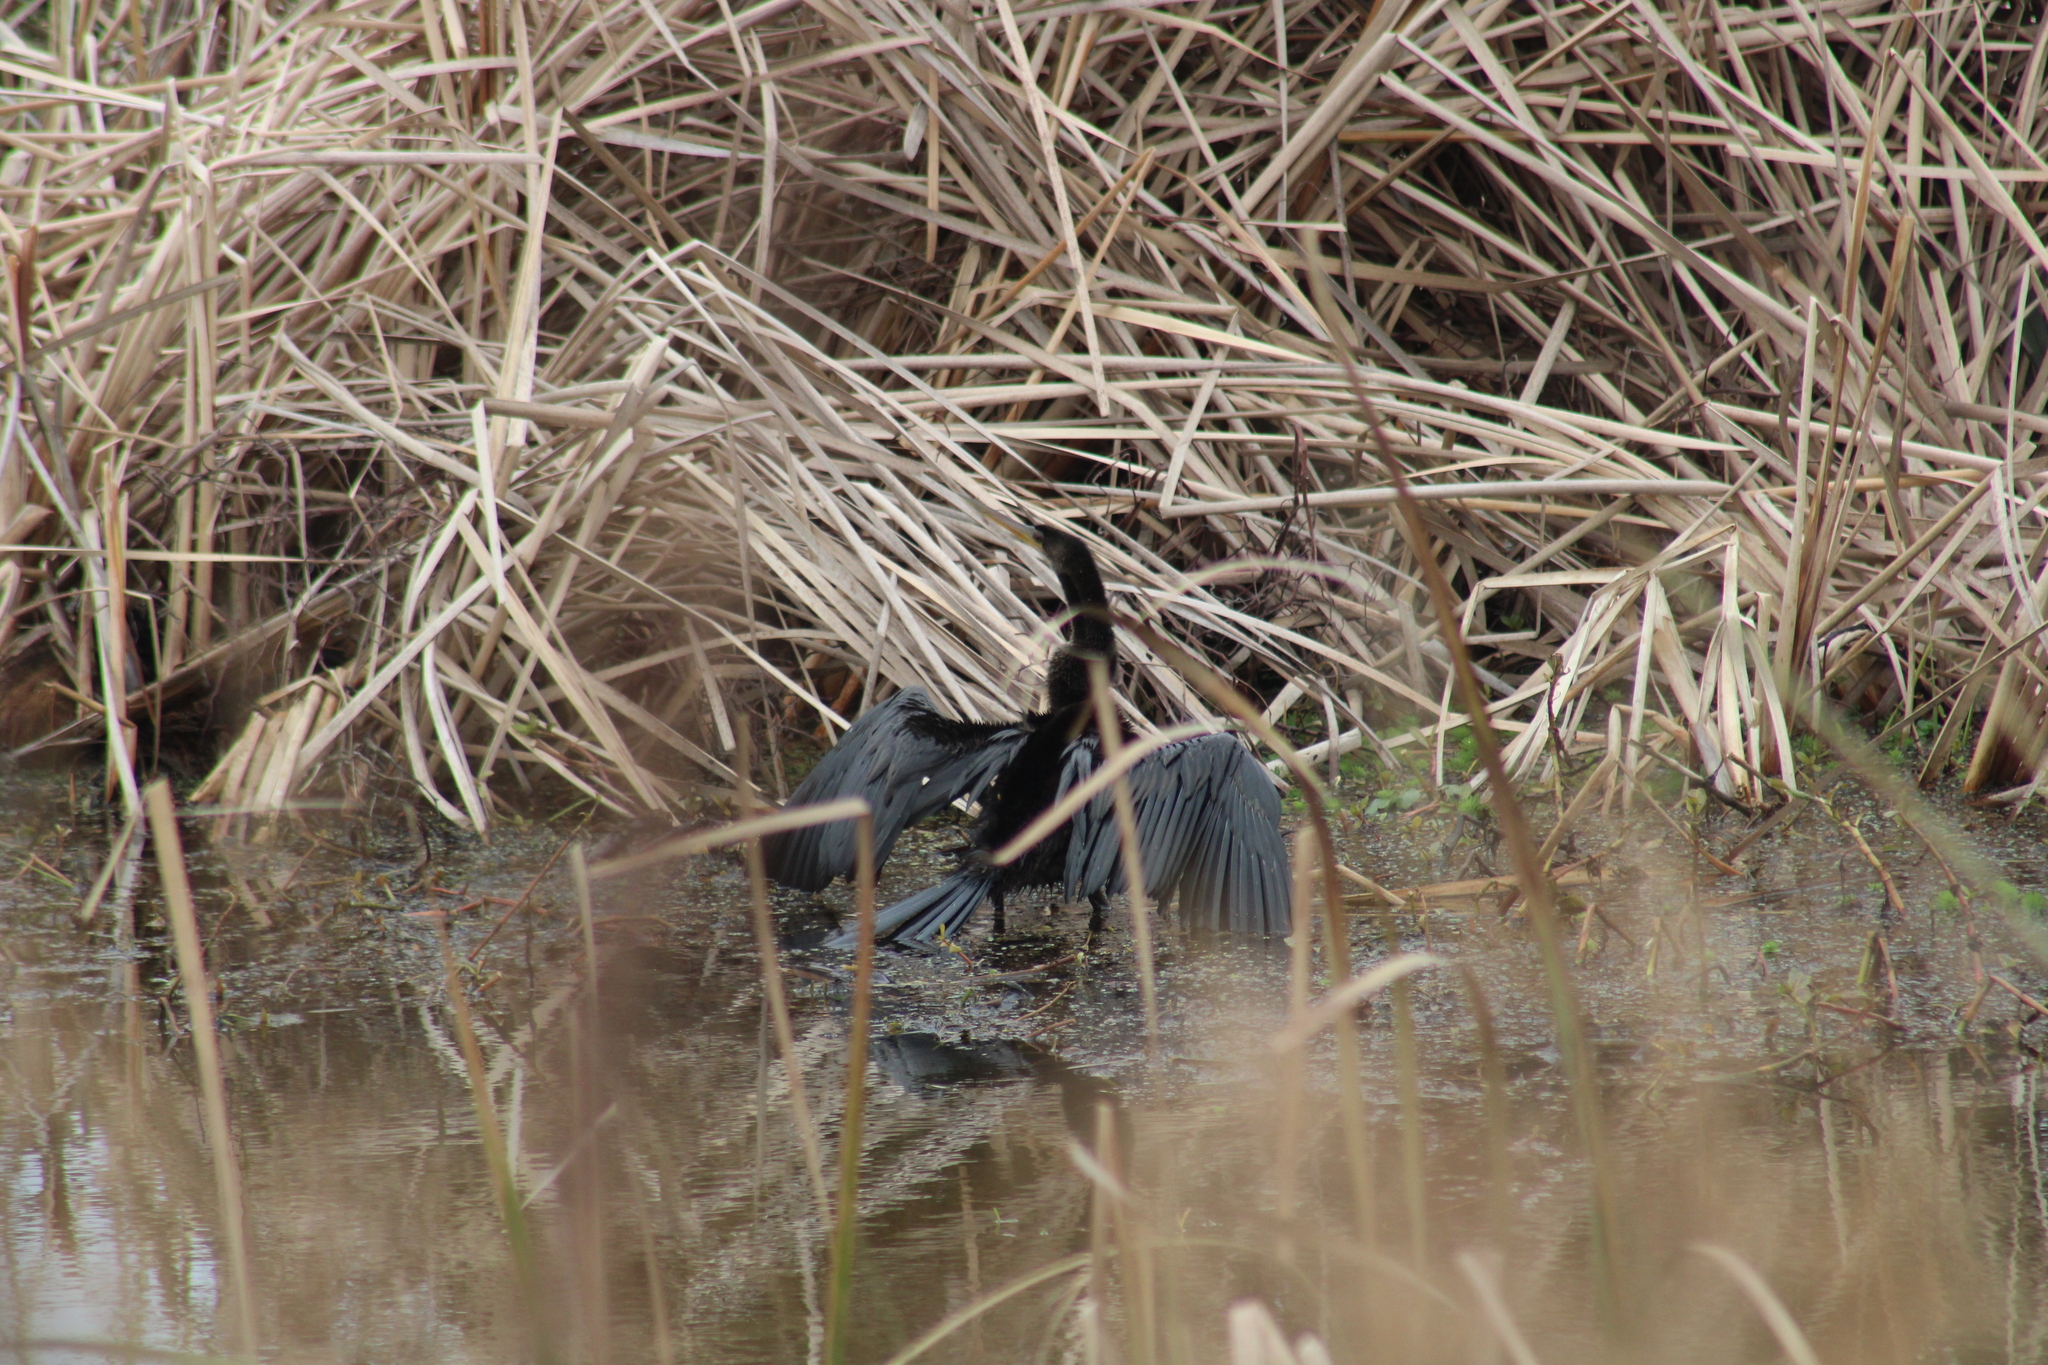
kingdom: Animalia
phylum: Chordata
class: Aves
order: Suliformes
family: Anhingidae
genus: Anhinga
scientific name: Anhinga anhinga
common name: Anhinga
